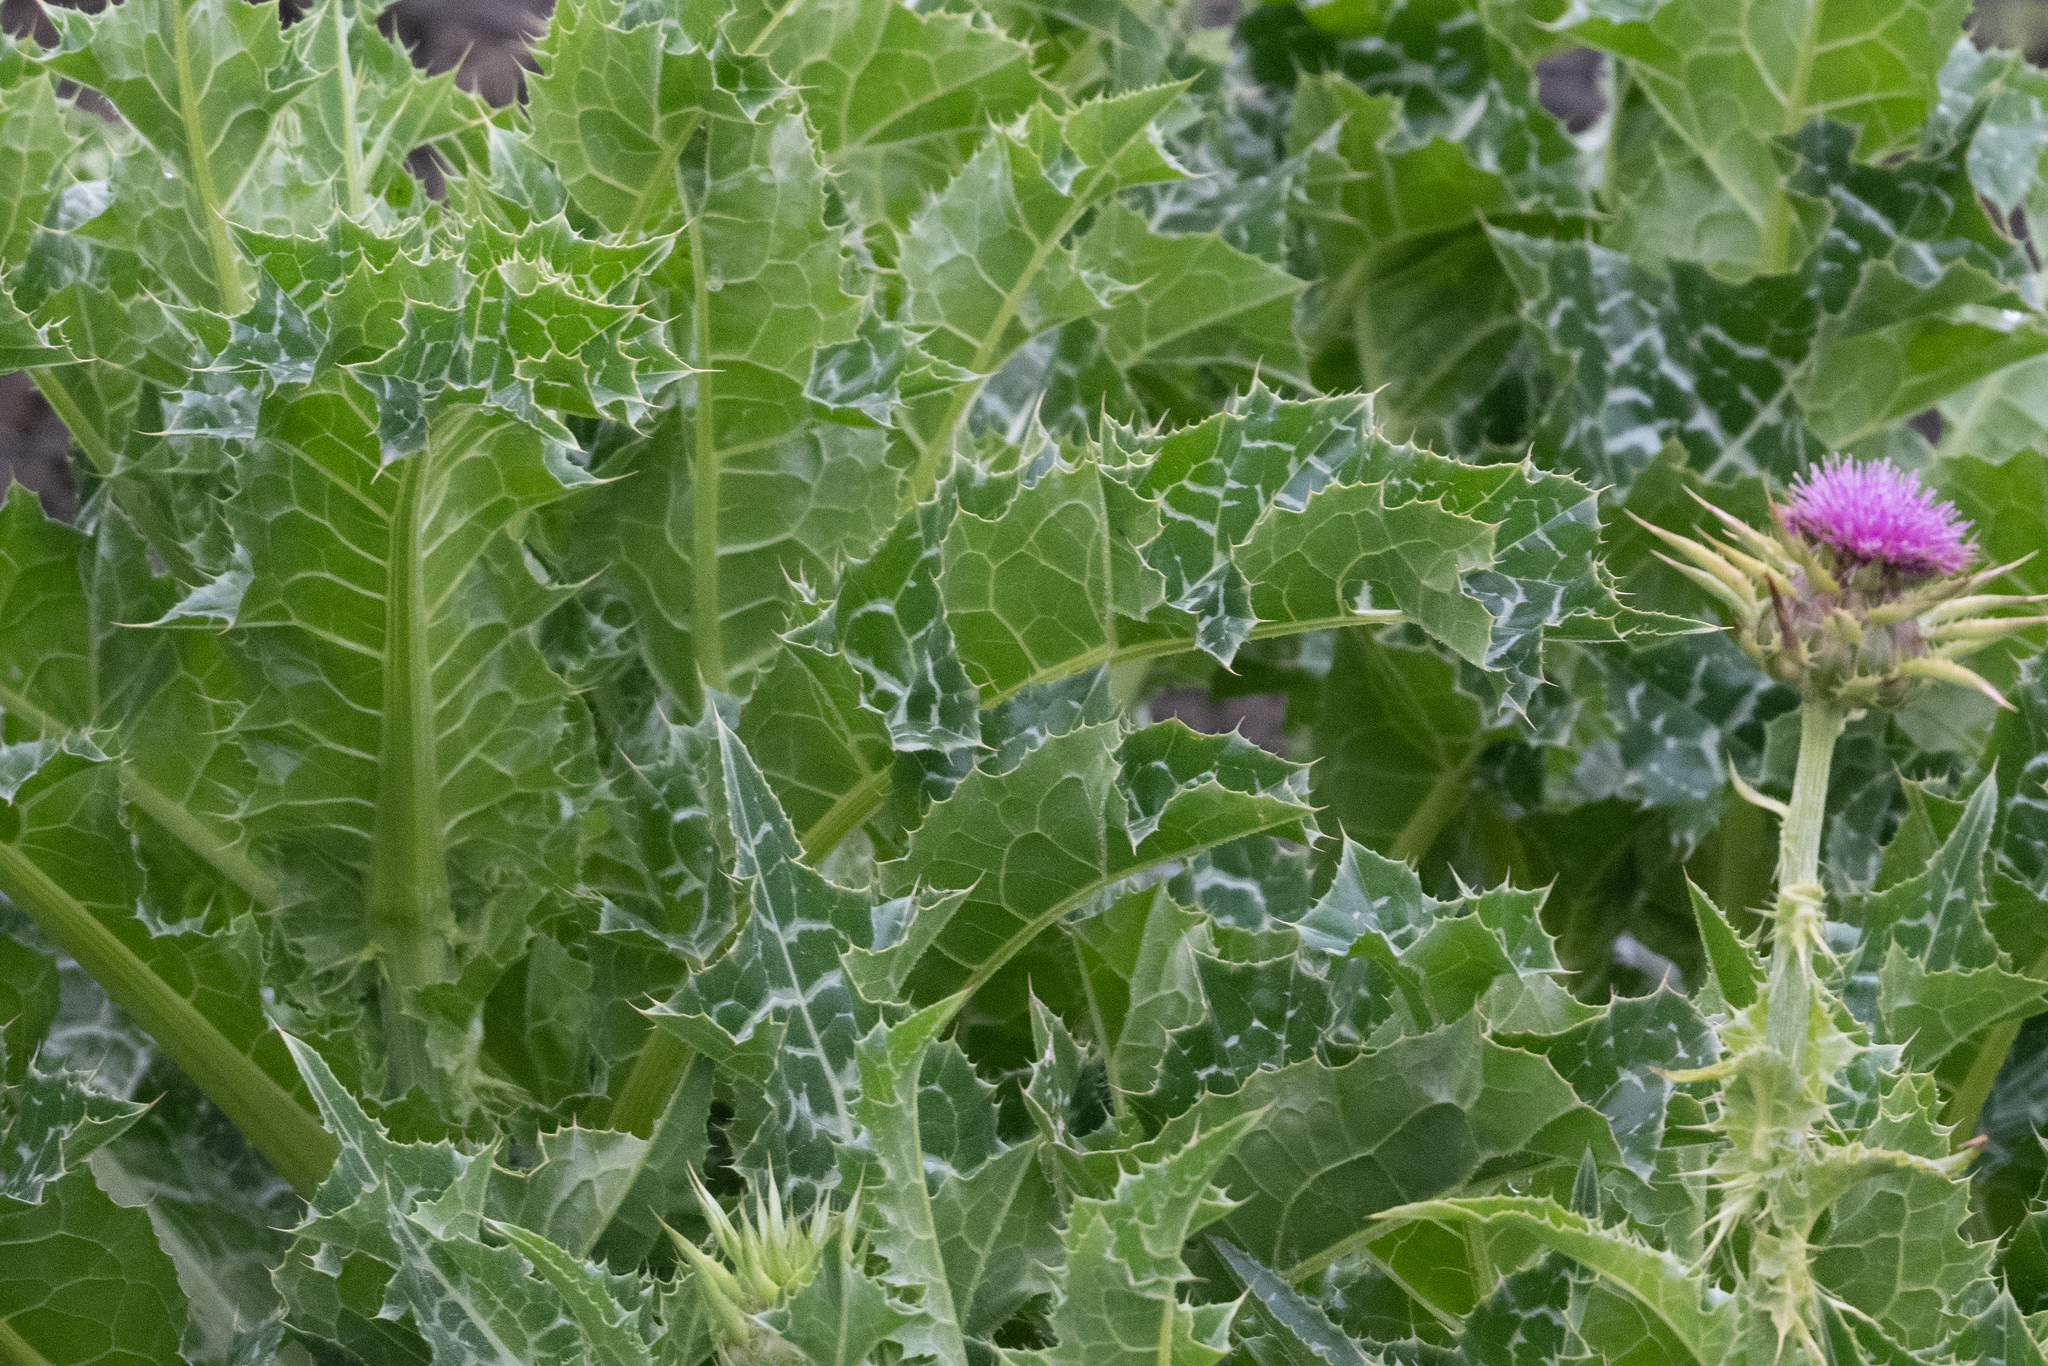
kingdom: Plantae
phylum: Tracheophyta
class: Magnoliopsida
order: Asterales
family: Asteraceae
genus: Silybum
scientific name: Silybum marianum
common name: Milk thistle
